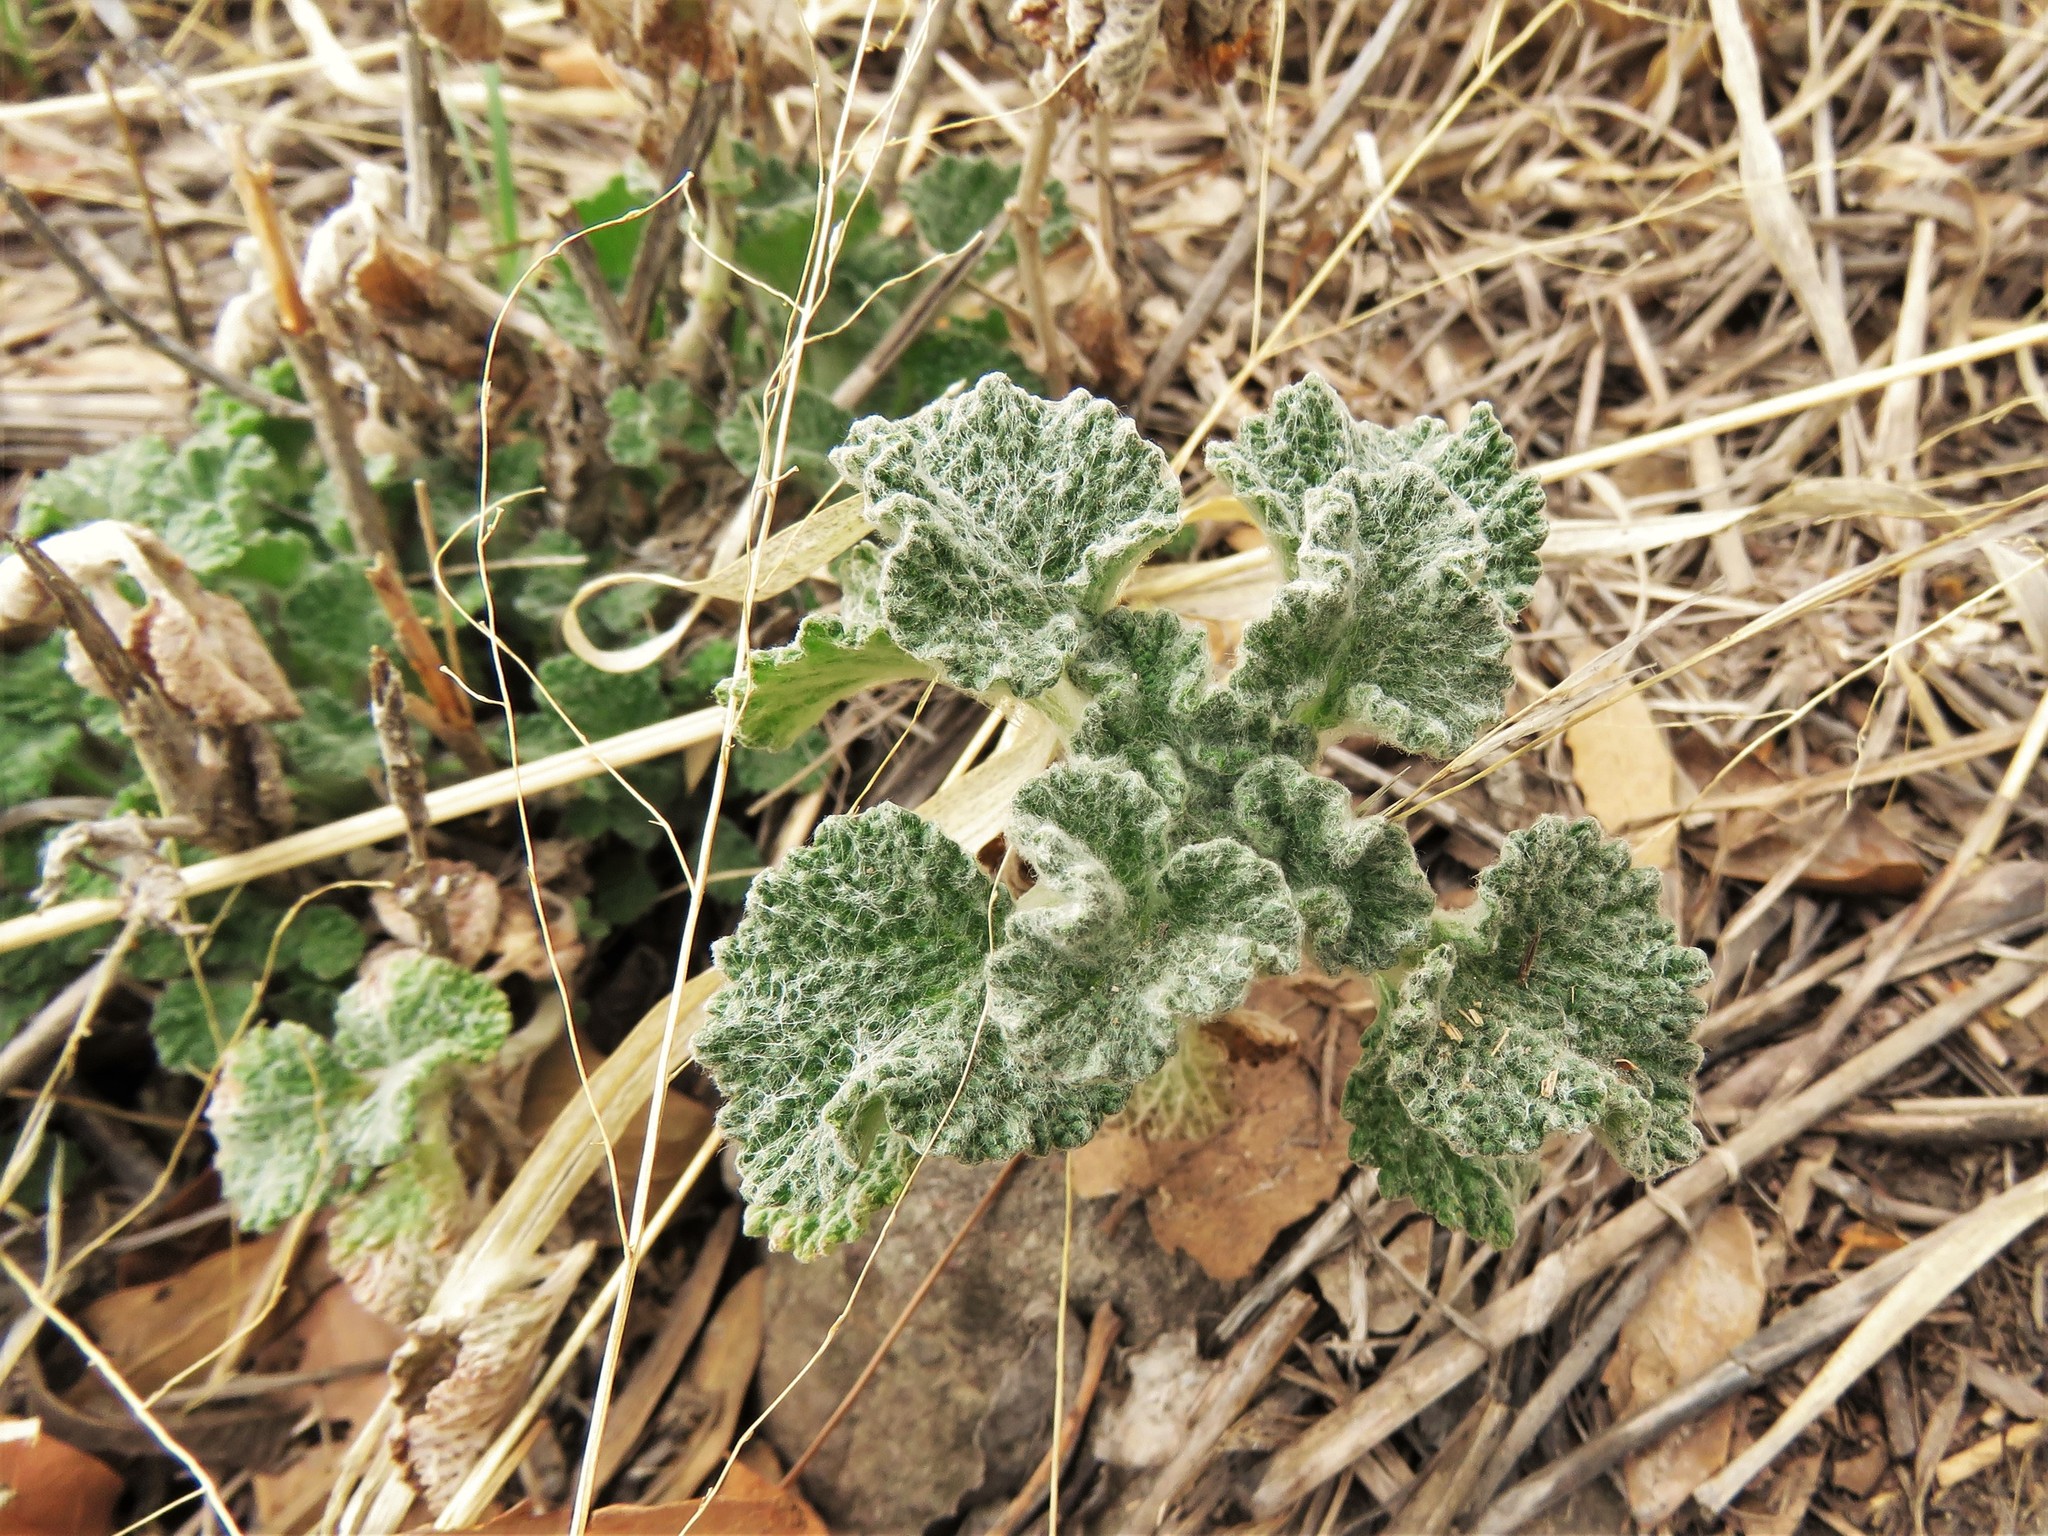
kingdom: Plantae
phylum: Tracheophyta
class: Magnoliopsida
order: Lamiales
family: Lamiaceae
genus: Marrubium
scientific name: Marrubium vulgare
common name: Horehound
